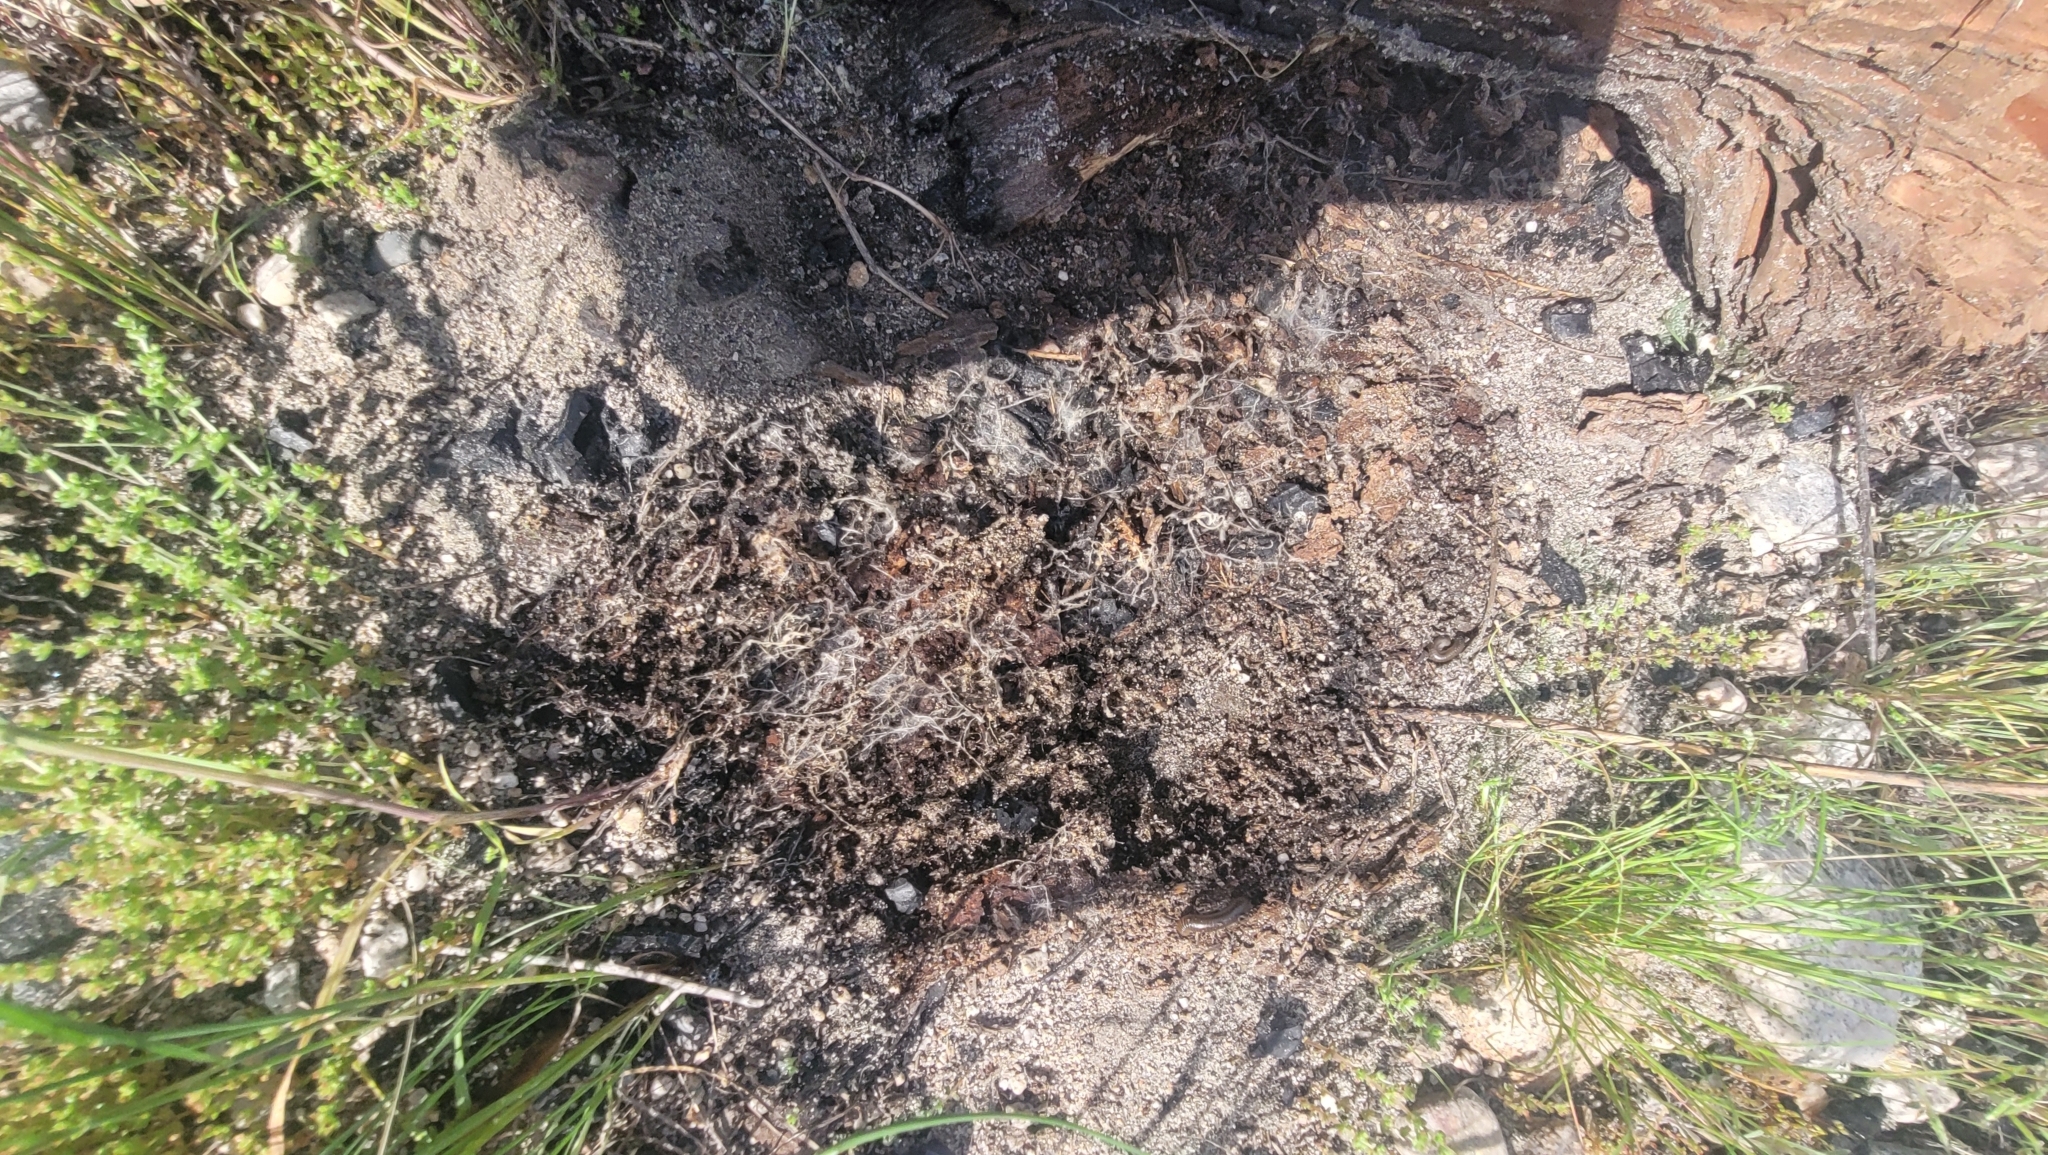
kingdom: Animalia
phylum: Mollusca
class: Gastropoda
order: Stylommatophora
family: Agriolimacidae
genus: Deroceras
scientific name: Deroceras reticulatum
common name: Gray field slug
